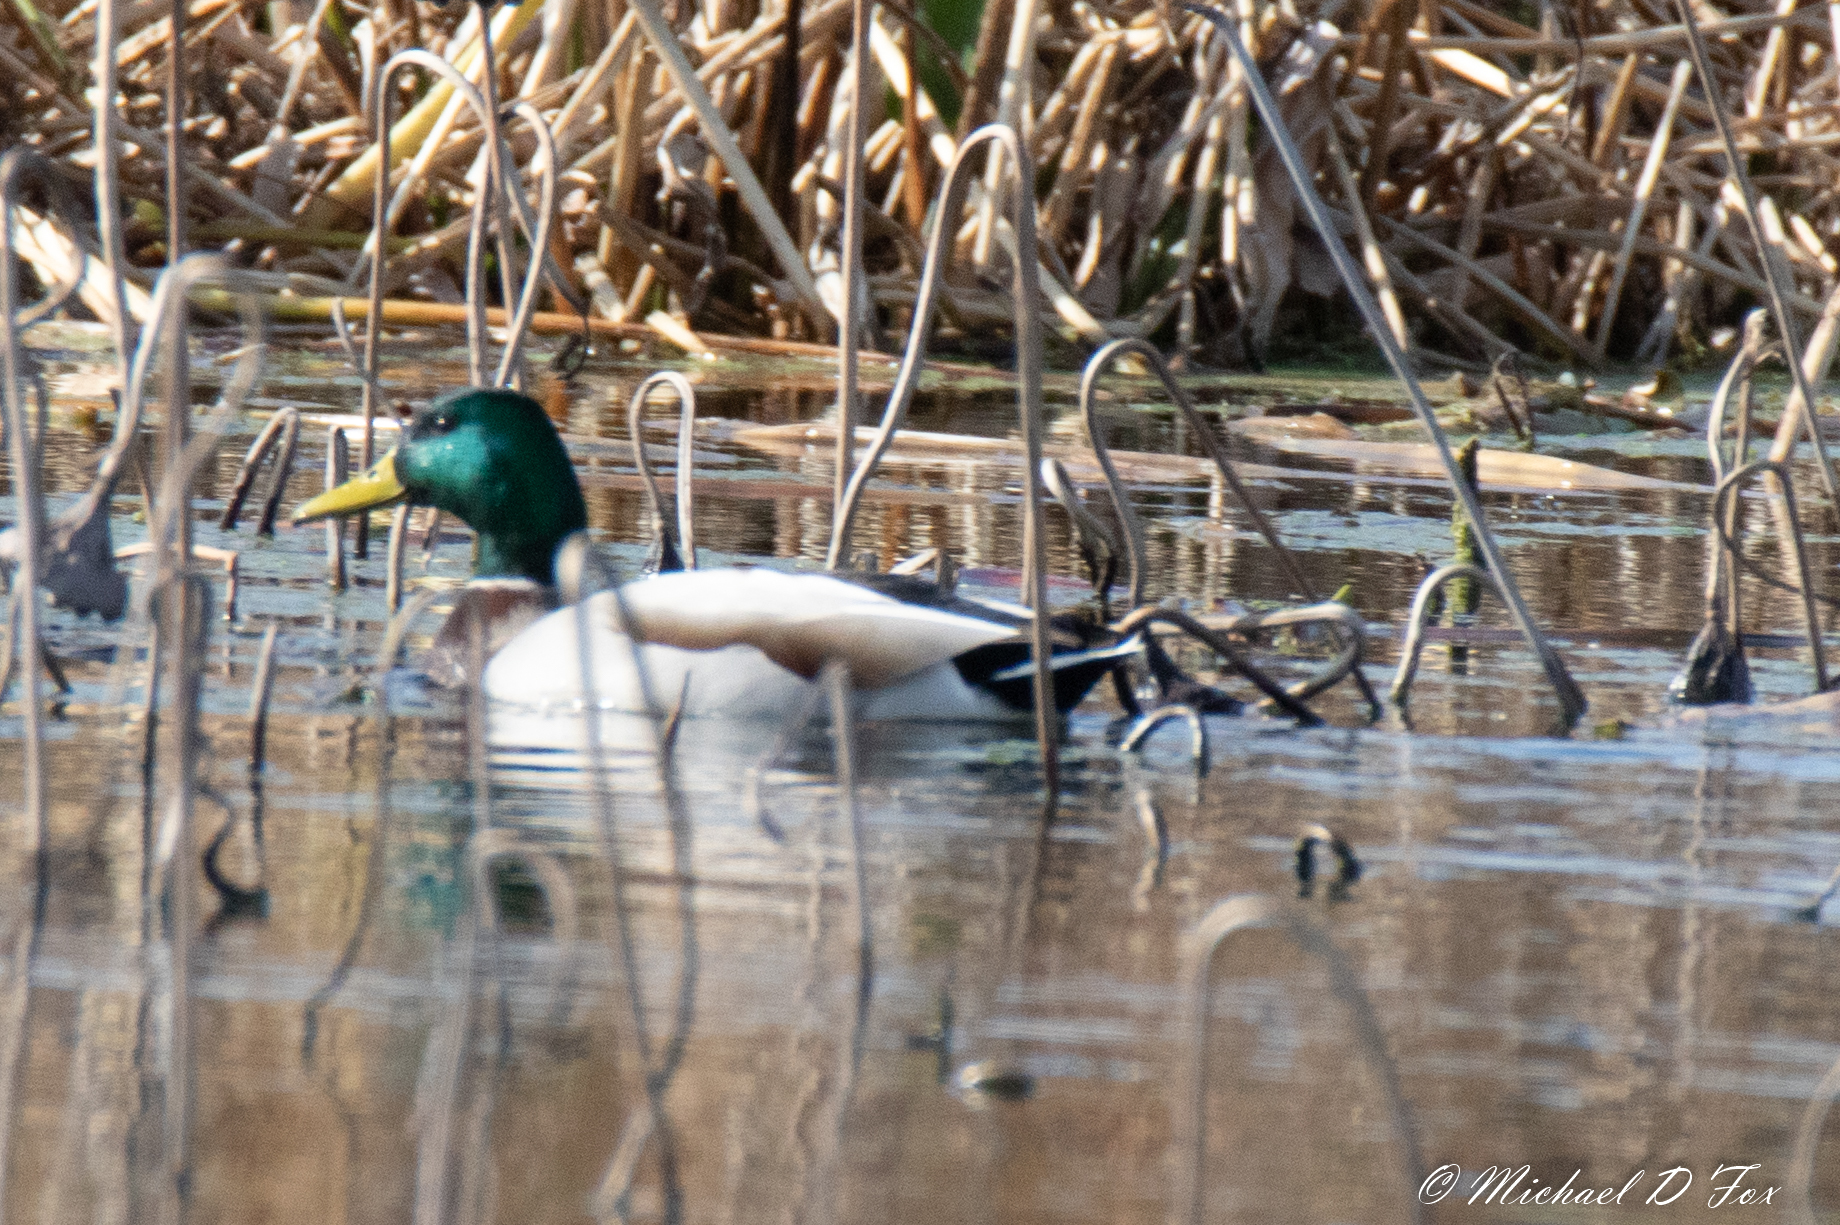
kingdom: Animalia
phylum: Chordata
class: Aves
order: Anseriformes
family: Anatidae
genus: Anas
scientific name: Anas platyrhynchos
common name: Mallard
